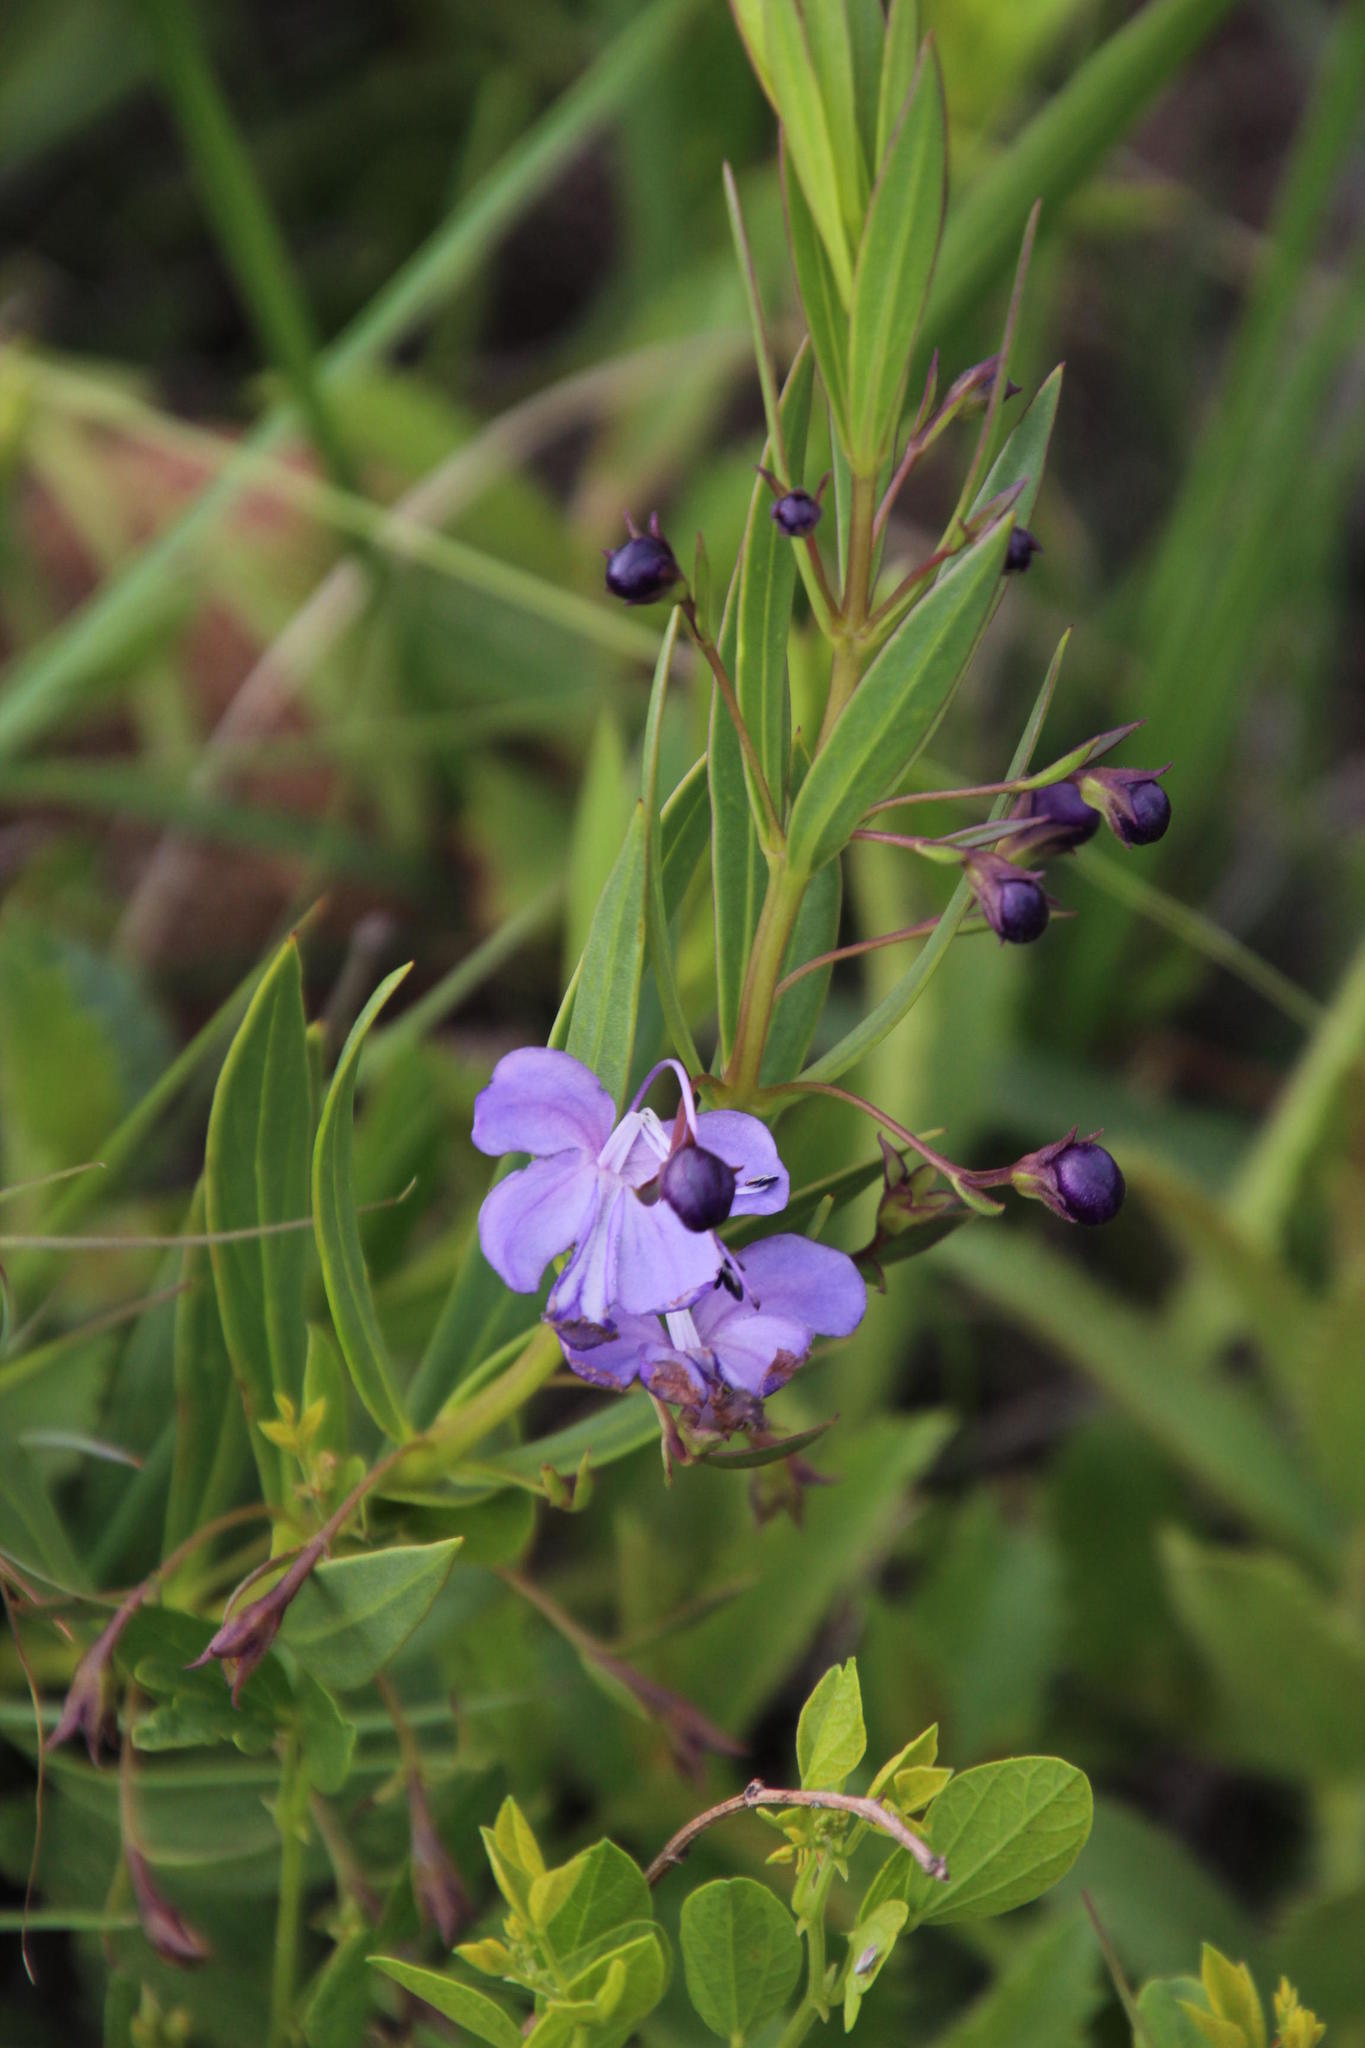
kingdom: Plantae
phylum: Tracheophyta
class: Magnoliopsida
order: Lamiales
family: Lamiaceae
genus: Rotheca
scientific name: Rotheca hirsuta
